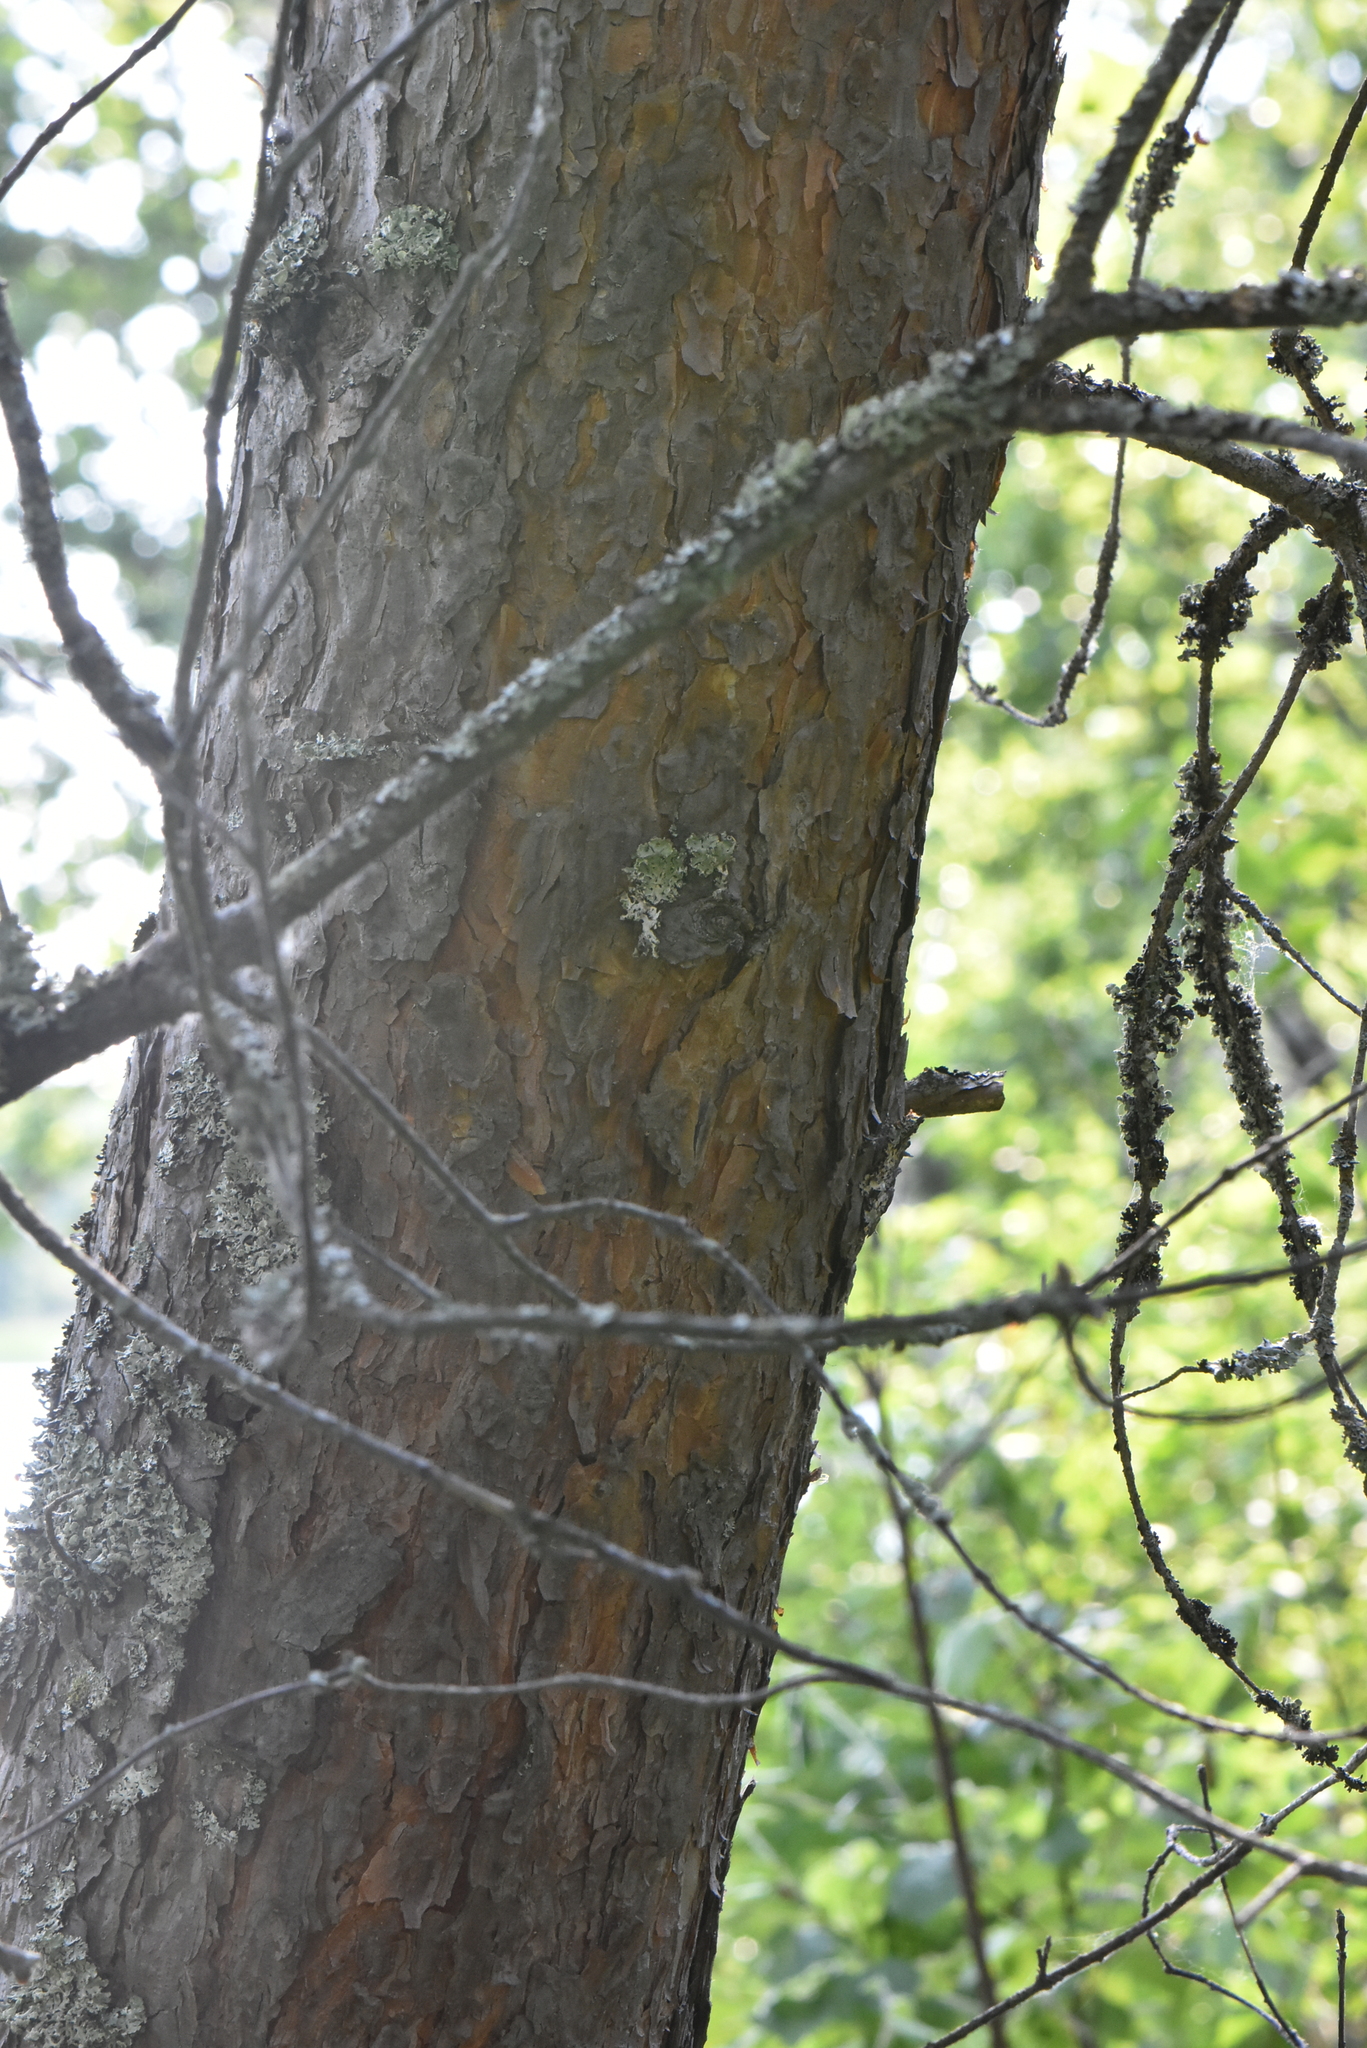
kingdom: Plantae
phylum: Tracheophyta
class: Pinopsida
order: Pinales
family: Pinaceae
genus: Pinus
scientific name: Pinus sylvestris
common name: Scots pine
